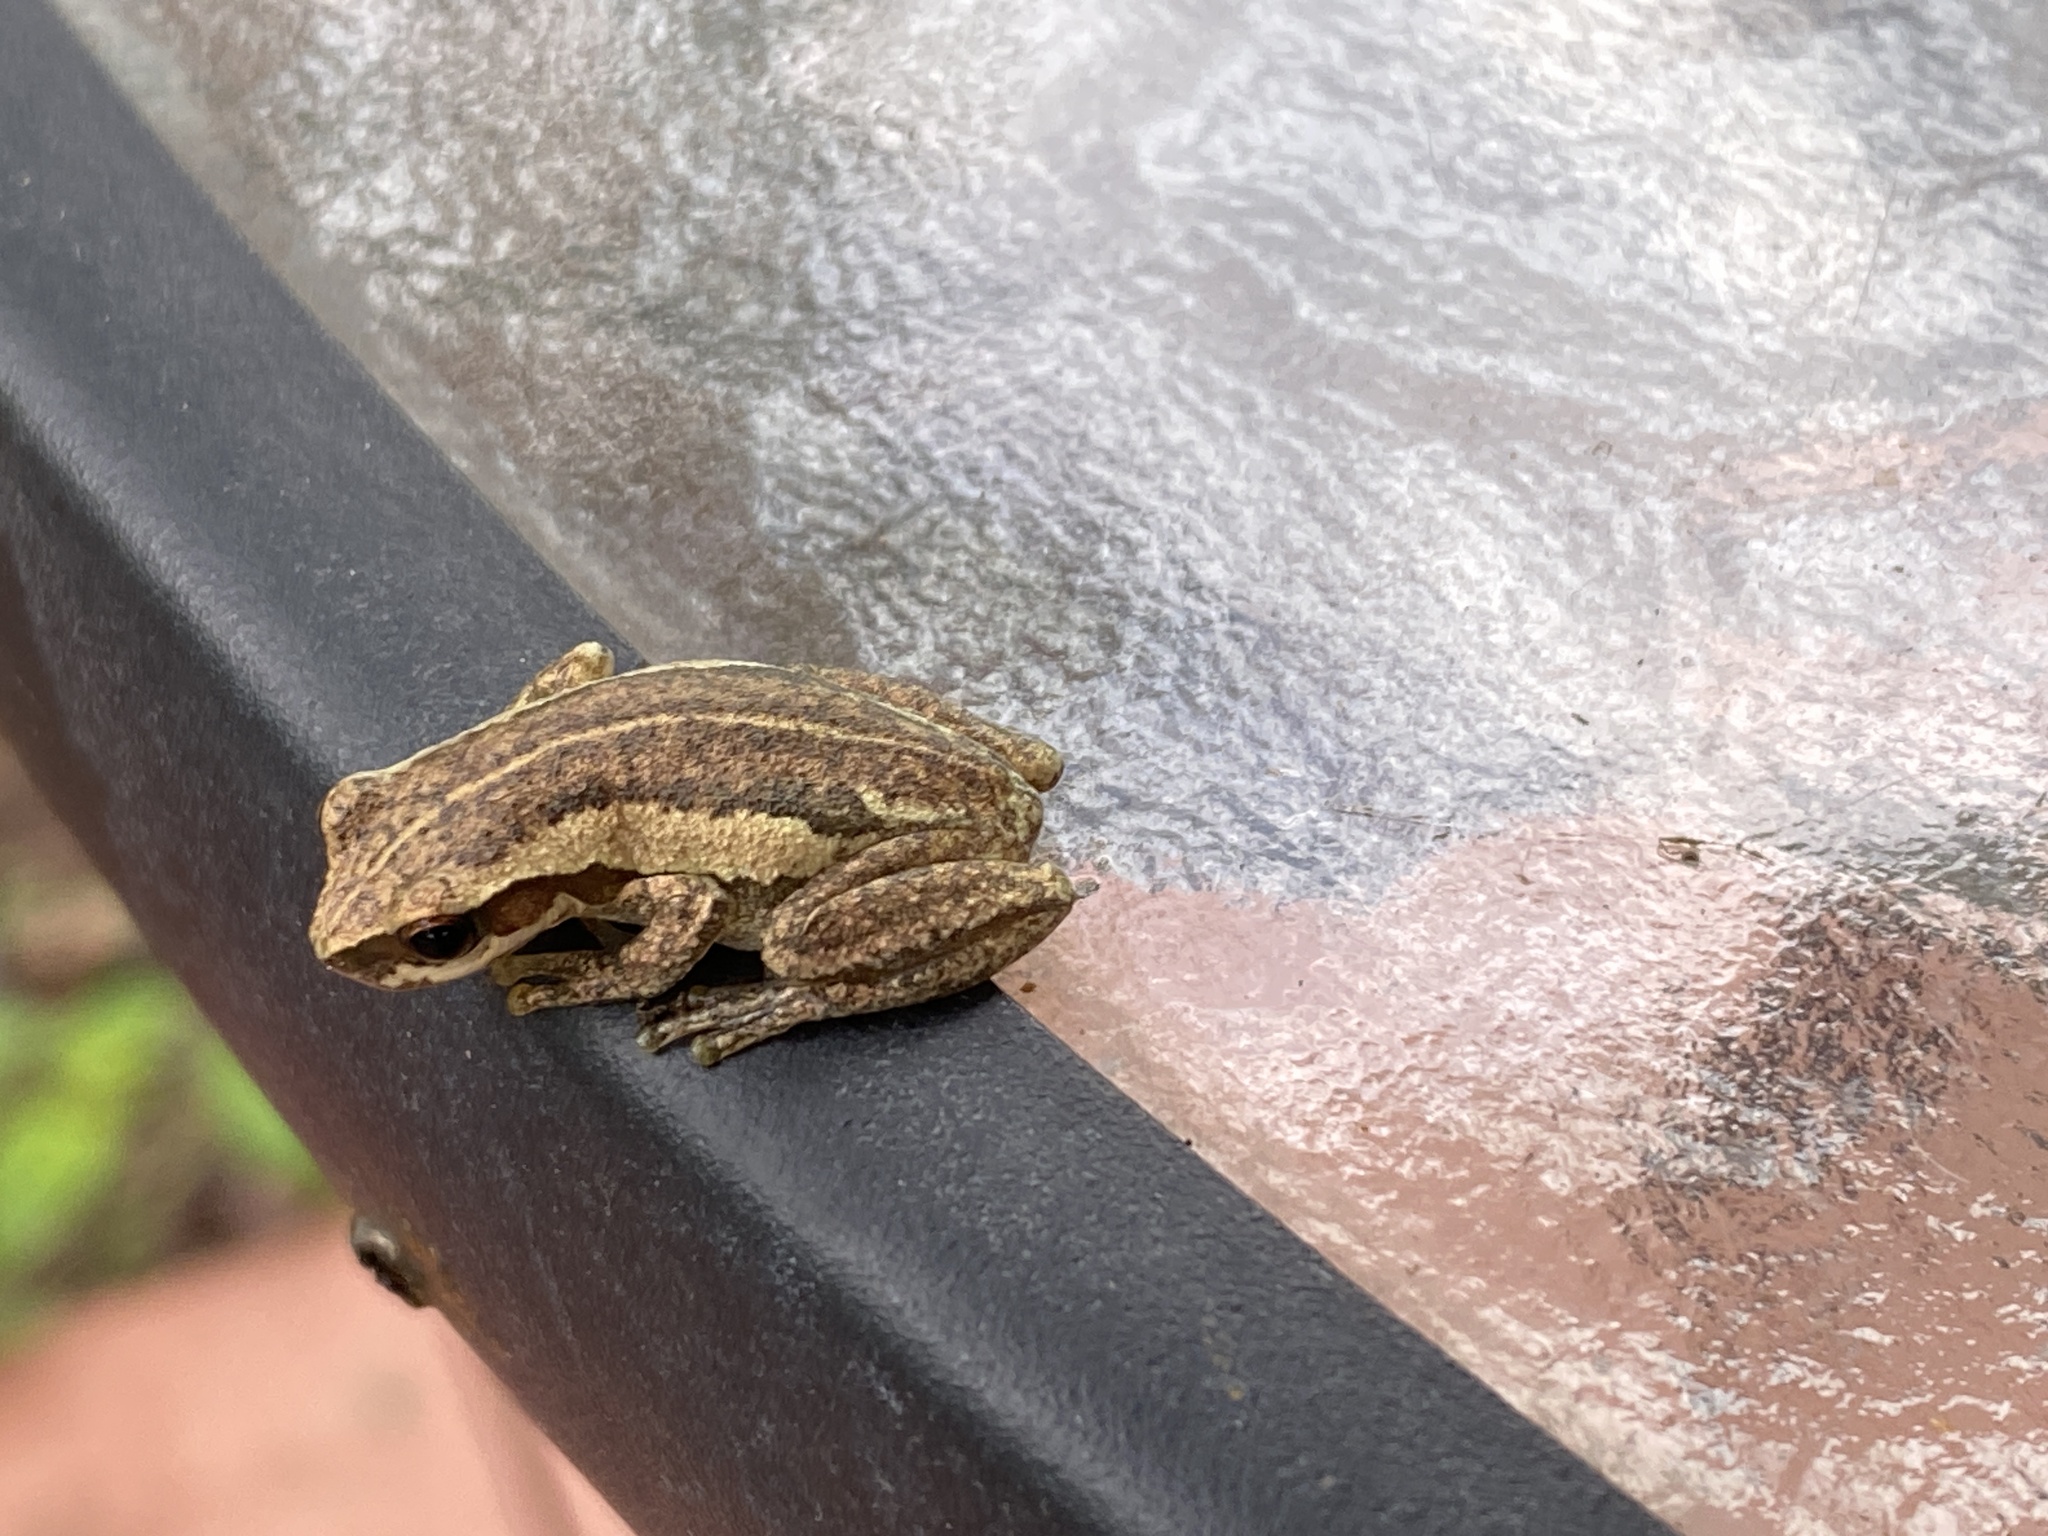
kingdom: Animalia
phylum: Chordata
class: Amphibia
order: Anura
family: Pelodryadidae
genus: Litoria
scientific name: Litoria rubella
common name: Desert tree frog
